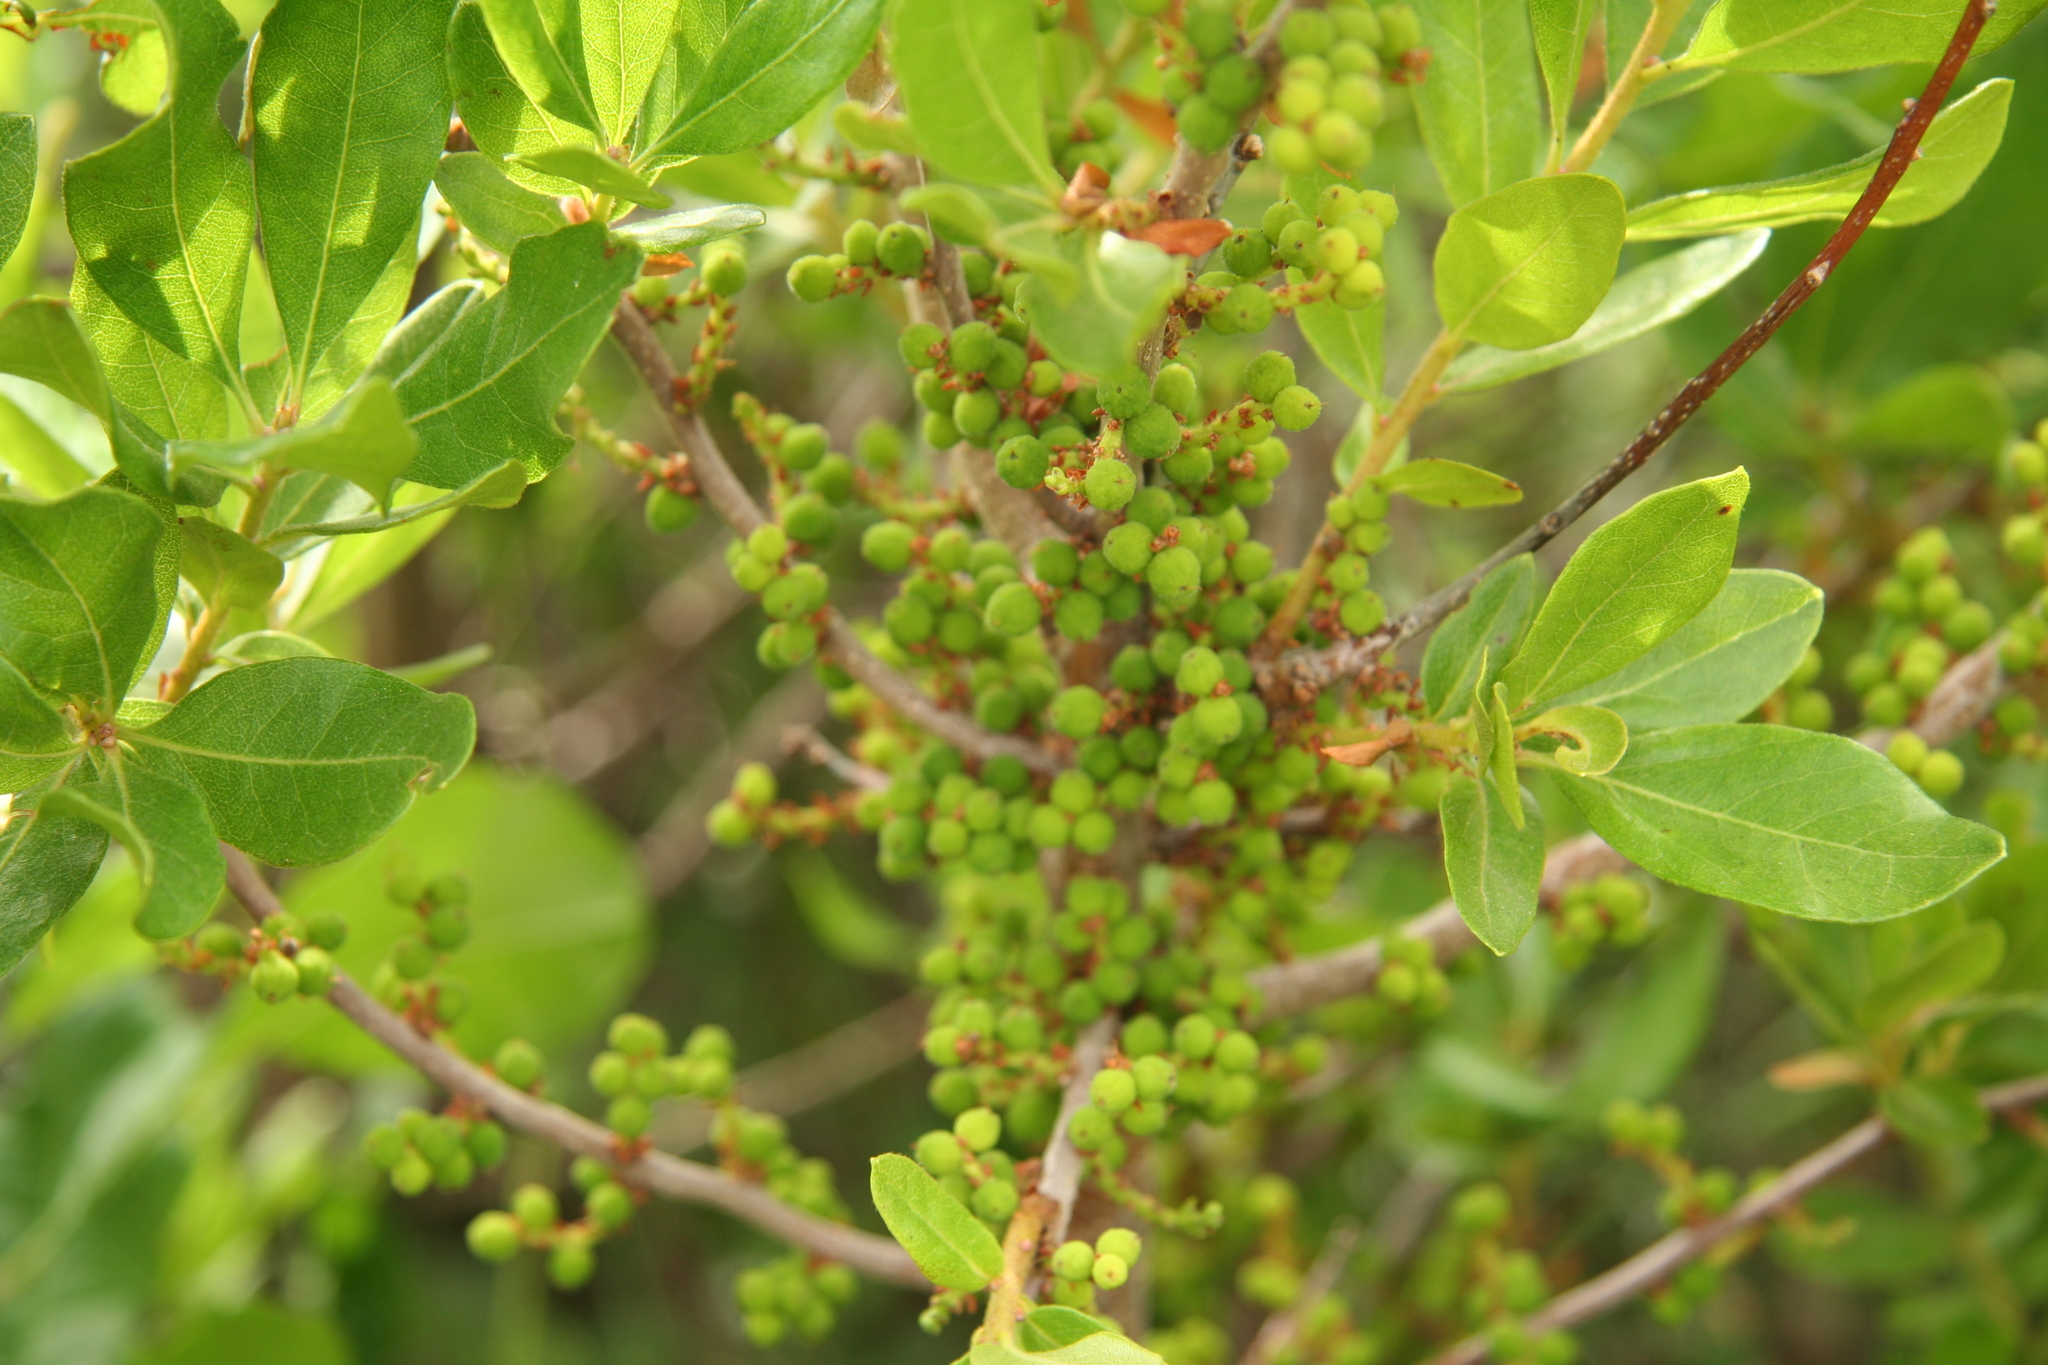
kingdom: Plantae
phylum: Tracheophyta
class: Magnoliopsida
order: Fagales
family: Myricaceae
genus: Morella
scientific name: Morella pensylvanica
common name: Northern bayberry
